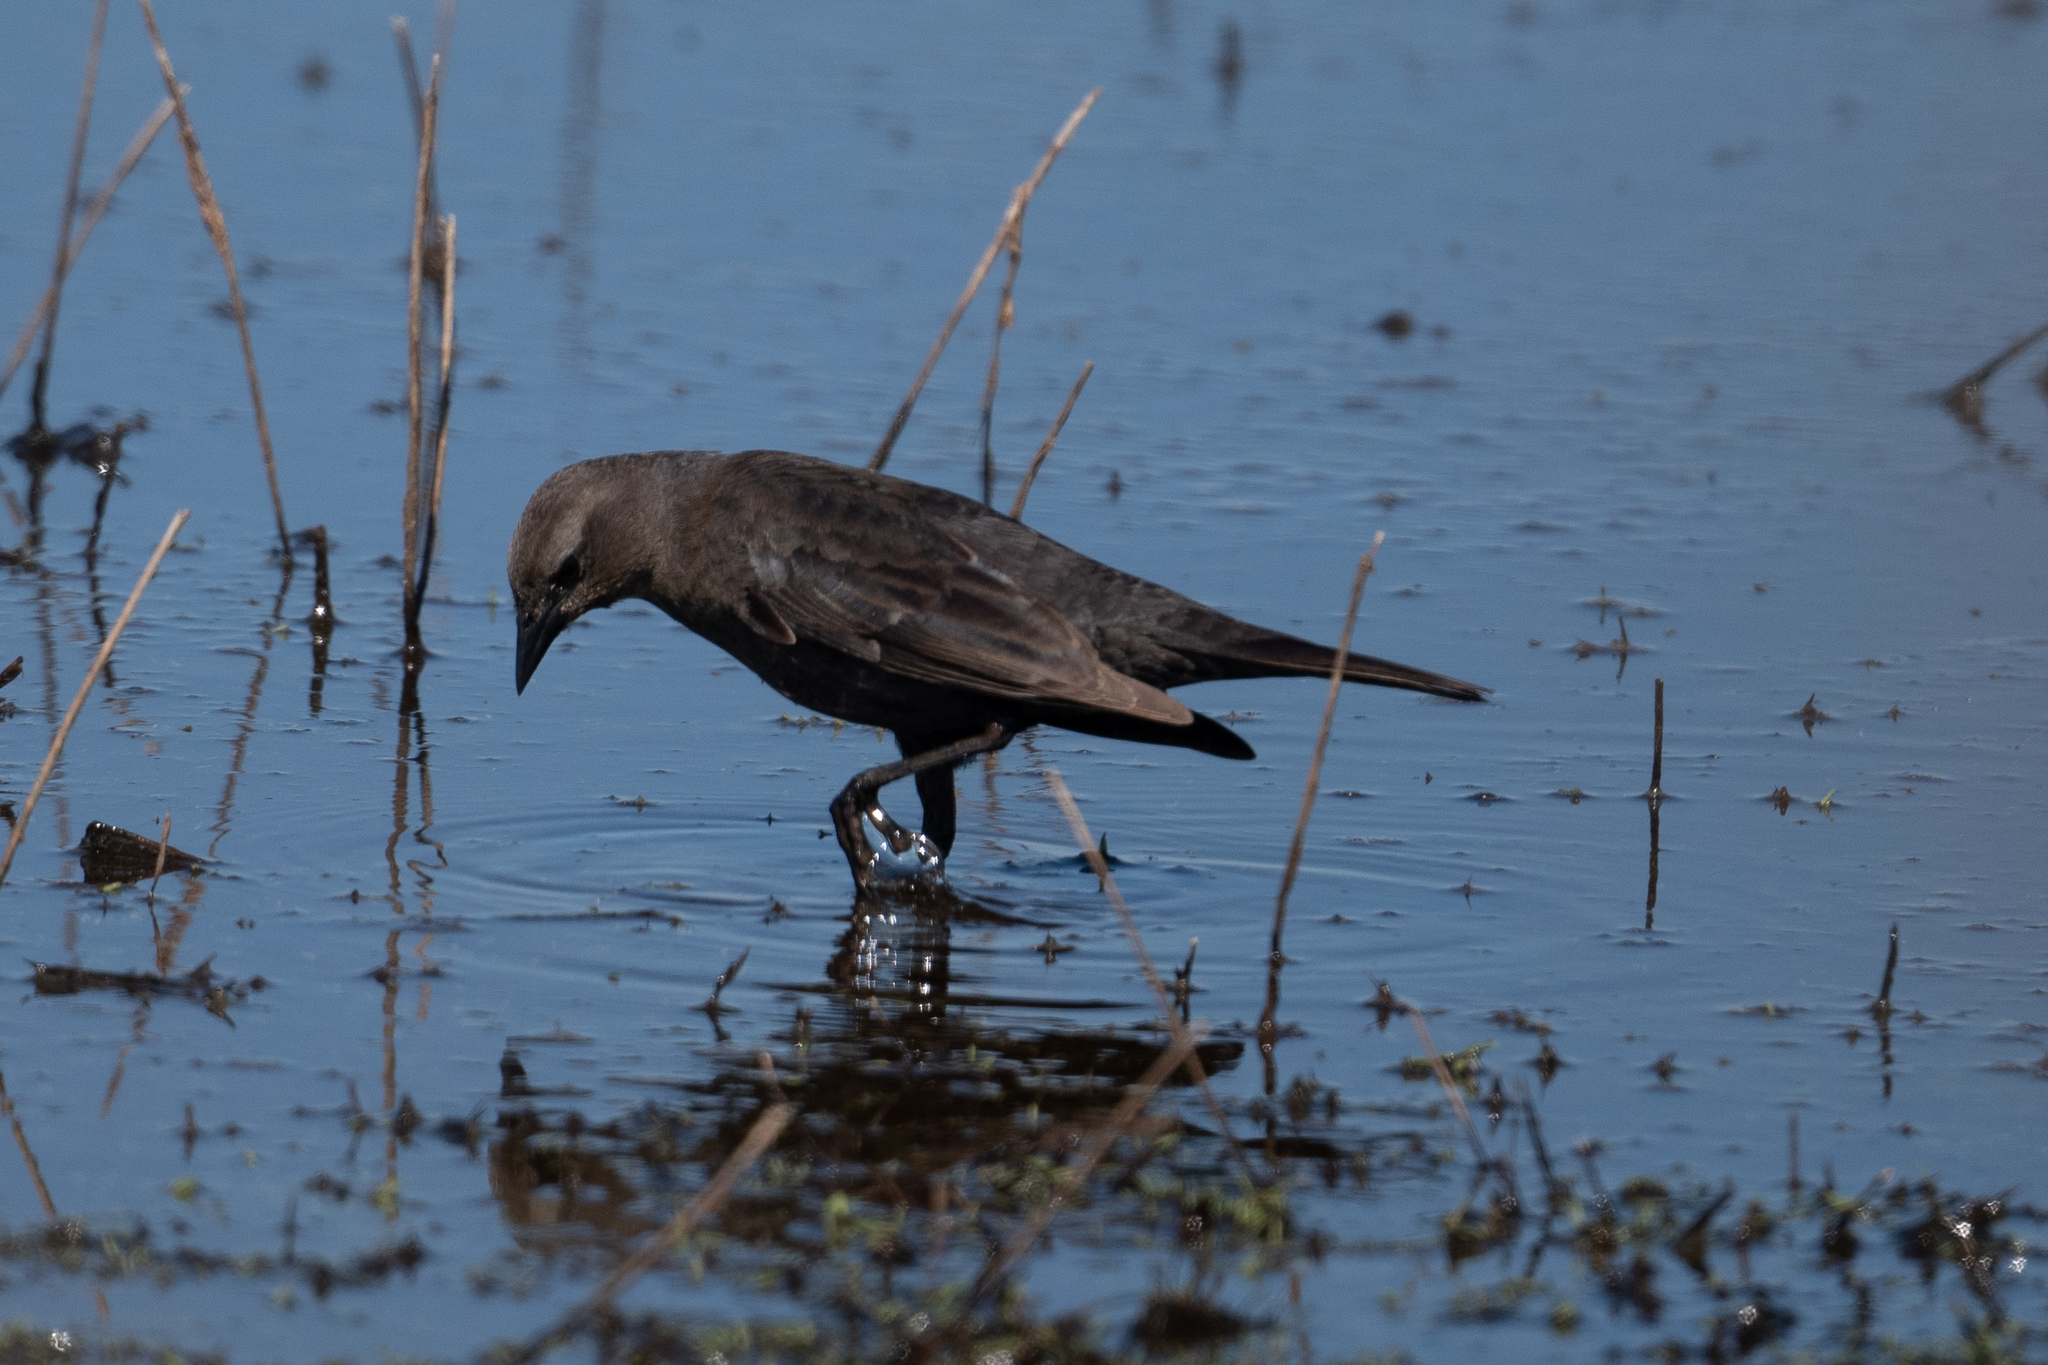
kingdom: Animalia
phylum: Chordata
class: Aves
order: Passeriformes
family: Icteridae
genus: Euphagus
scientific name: Euphagus cyanocephalus
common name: Brewer's blackbird
